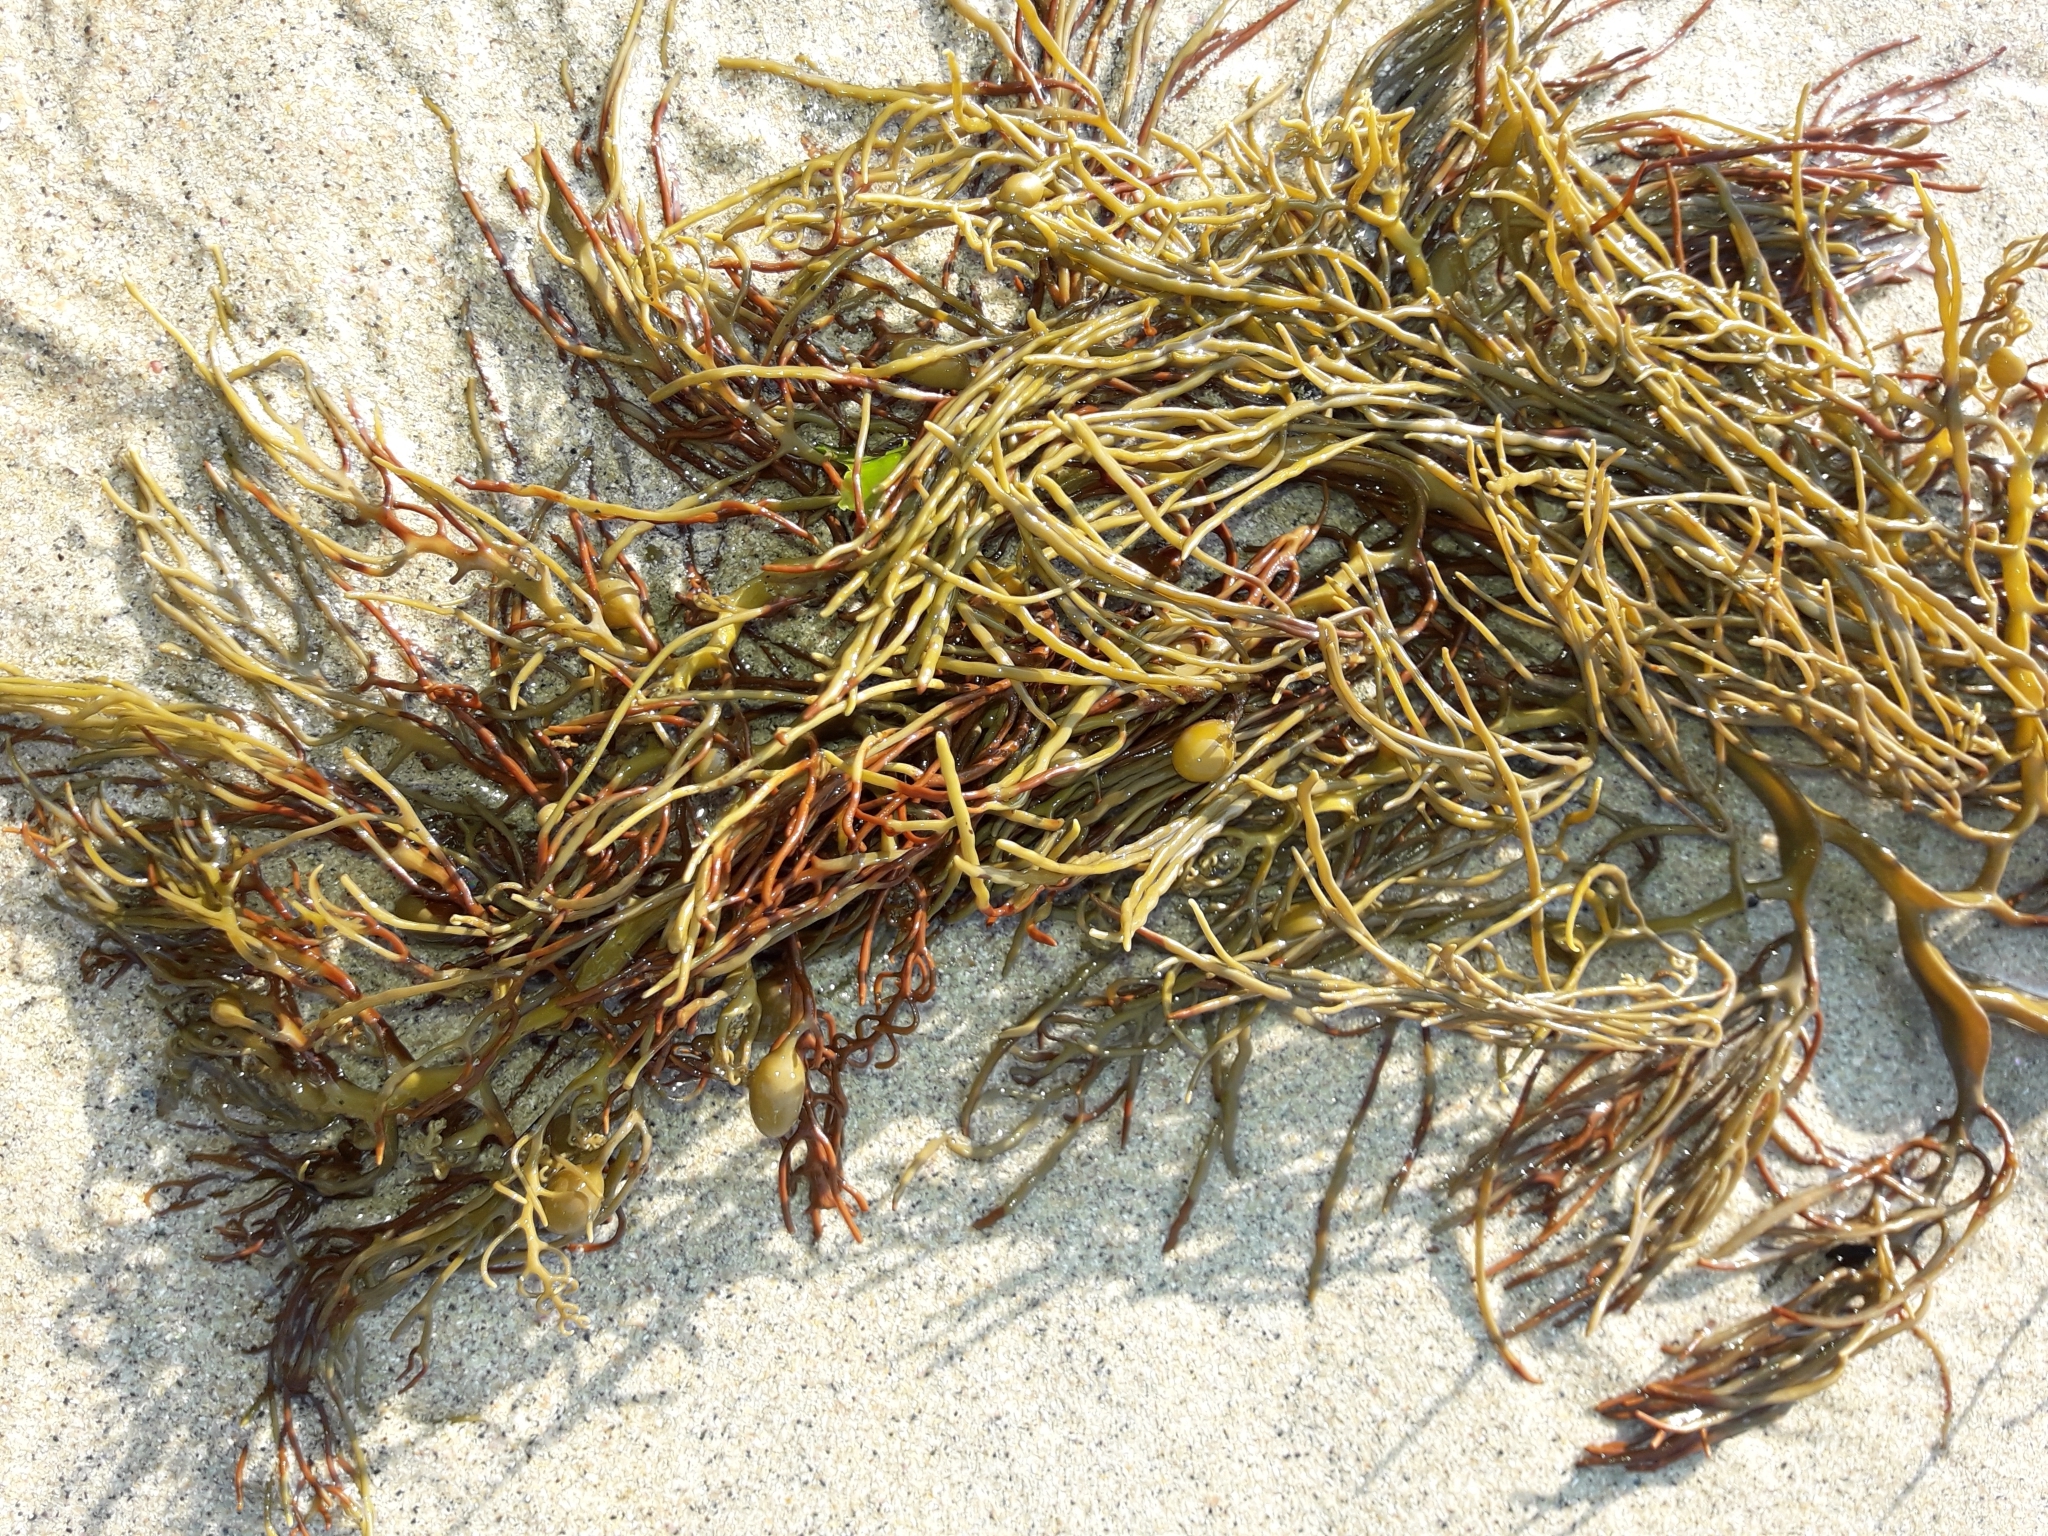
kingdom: Chromista
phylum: Ochrophyta
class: Phaeophyceae
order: Fucales
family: Sargassaceae
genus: Cystophora
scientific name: Cystophora retroflexa
